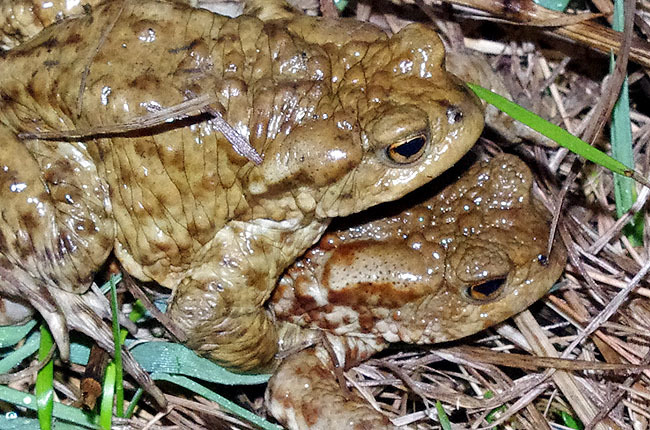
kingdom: Animalia
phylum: Chordata
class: Amphibia
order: Anura
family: Bufonidae
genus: Bufo
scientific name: Bufo bufo
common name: Common toad
